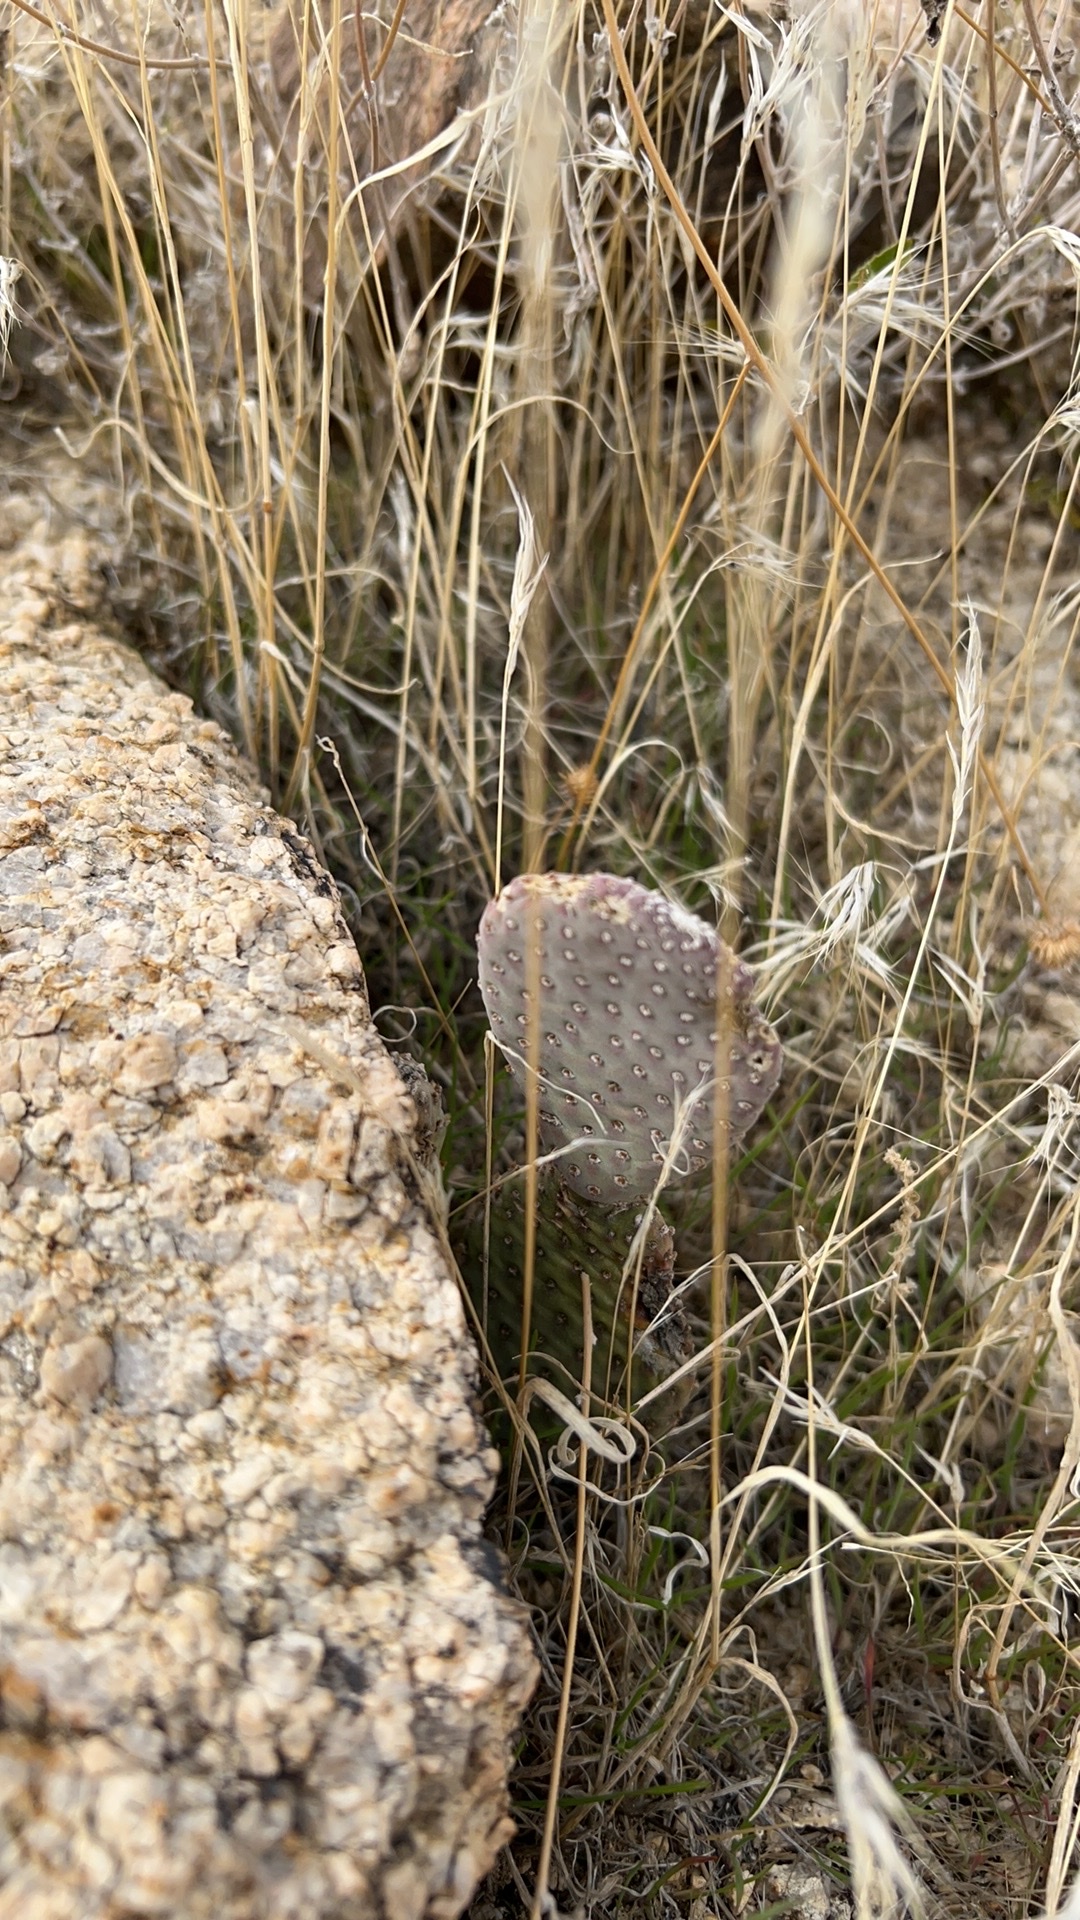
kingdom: Plantae
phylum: Tracheophyta
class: Magnoliopsida
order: Caryophyllales
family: Cactaceae
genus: Opuntia
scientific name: Opuntia basilaris
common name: Beavertail prickly-pear
